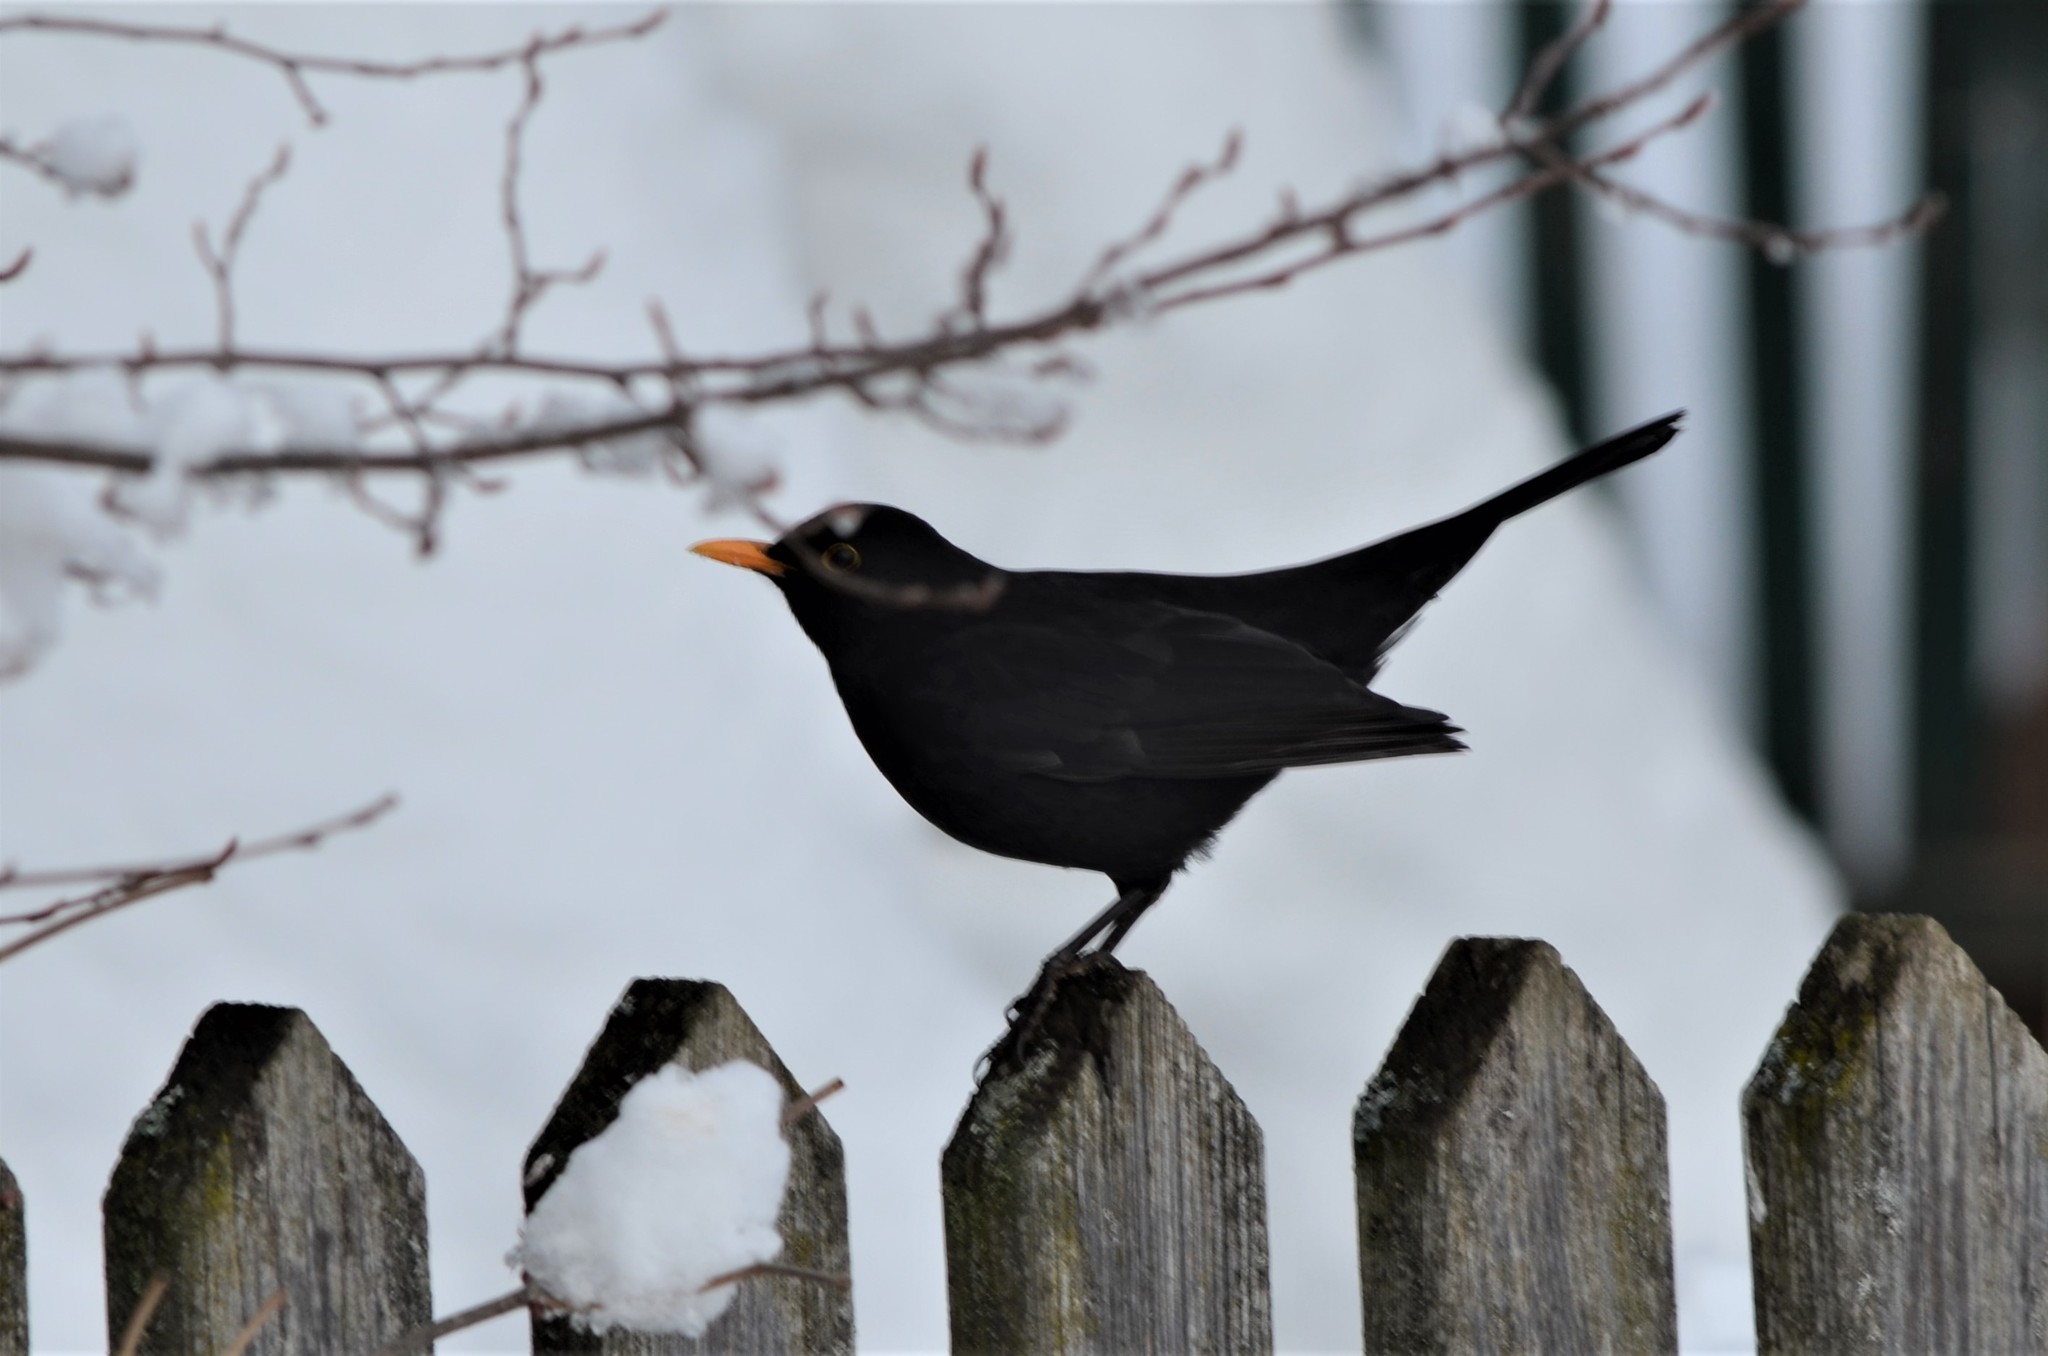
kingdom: Animalia
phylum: Chordata
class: Aves
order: Passeriformes
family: Turdidae
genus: Turdus
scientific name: Turdus merula
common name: Common blackbird
